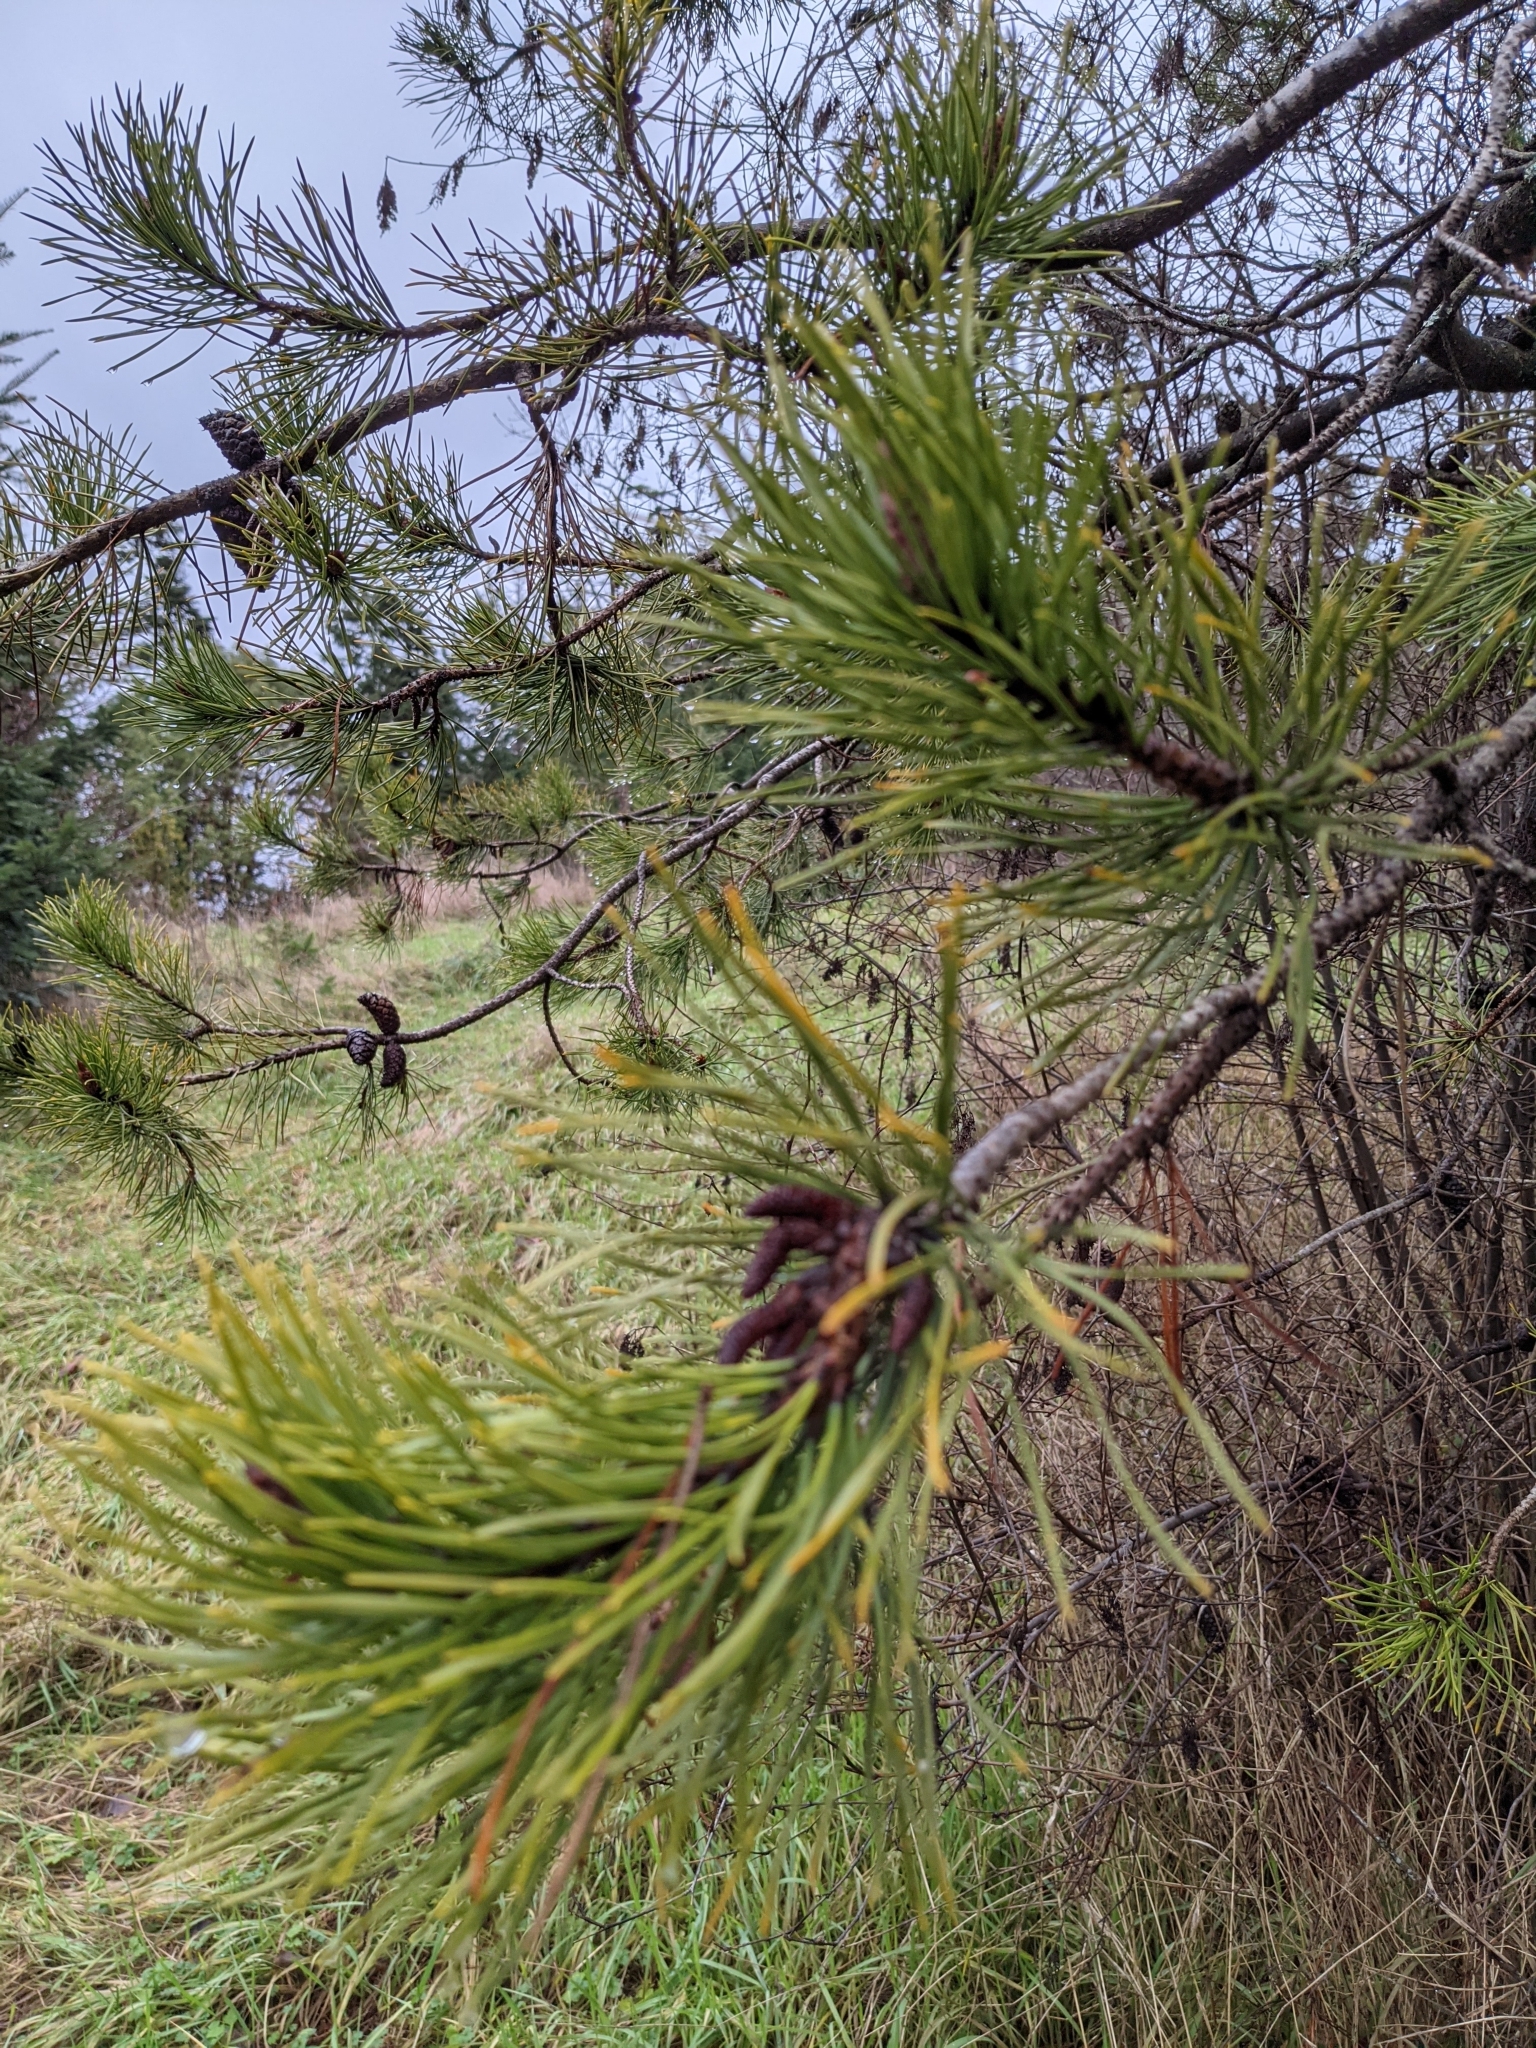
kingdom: Plantae
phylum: Tracheophyta
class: Pinopsida
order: Pinales
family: Pinaceae
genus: Pinus
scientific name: Pinus contorta
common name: Lodgepole pine
